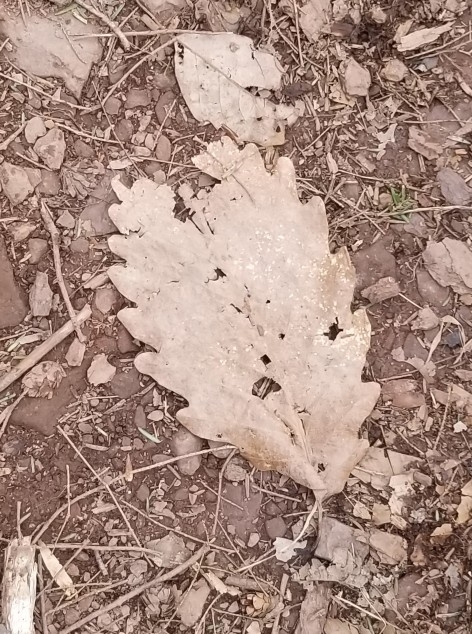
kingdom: Plantae
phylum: Tracheophyta
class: Magnoliopsida
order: Fagales
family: Fagaceae
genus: Quercus
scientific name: Quercus montana
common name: Chestnut oak
